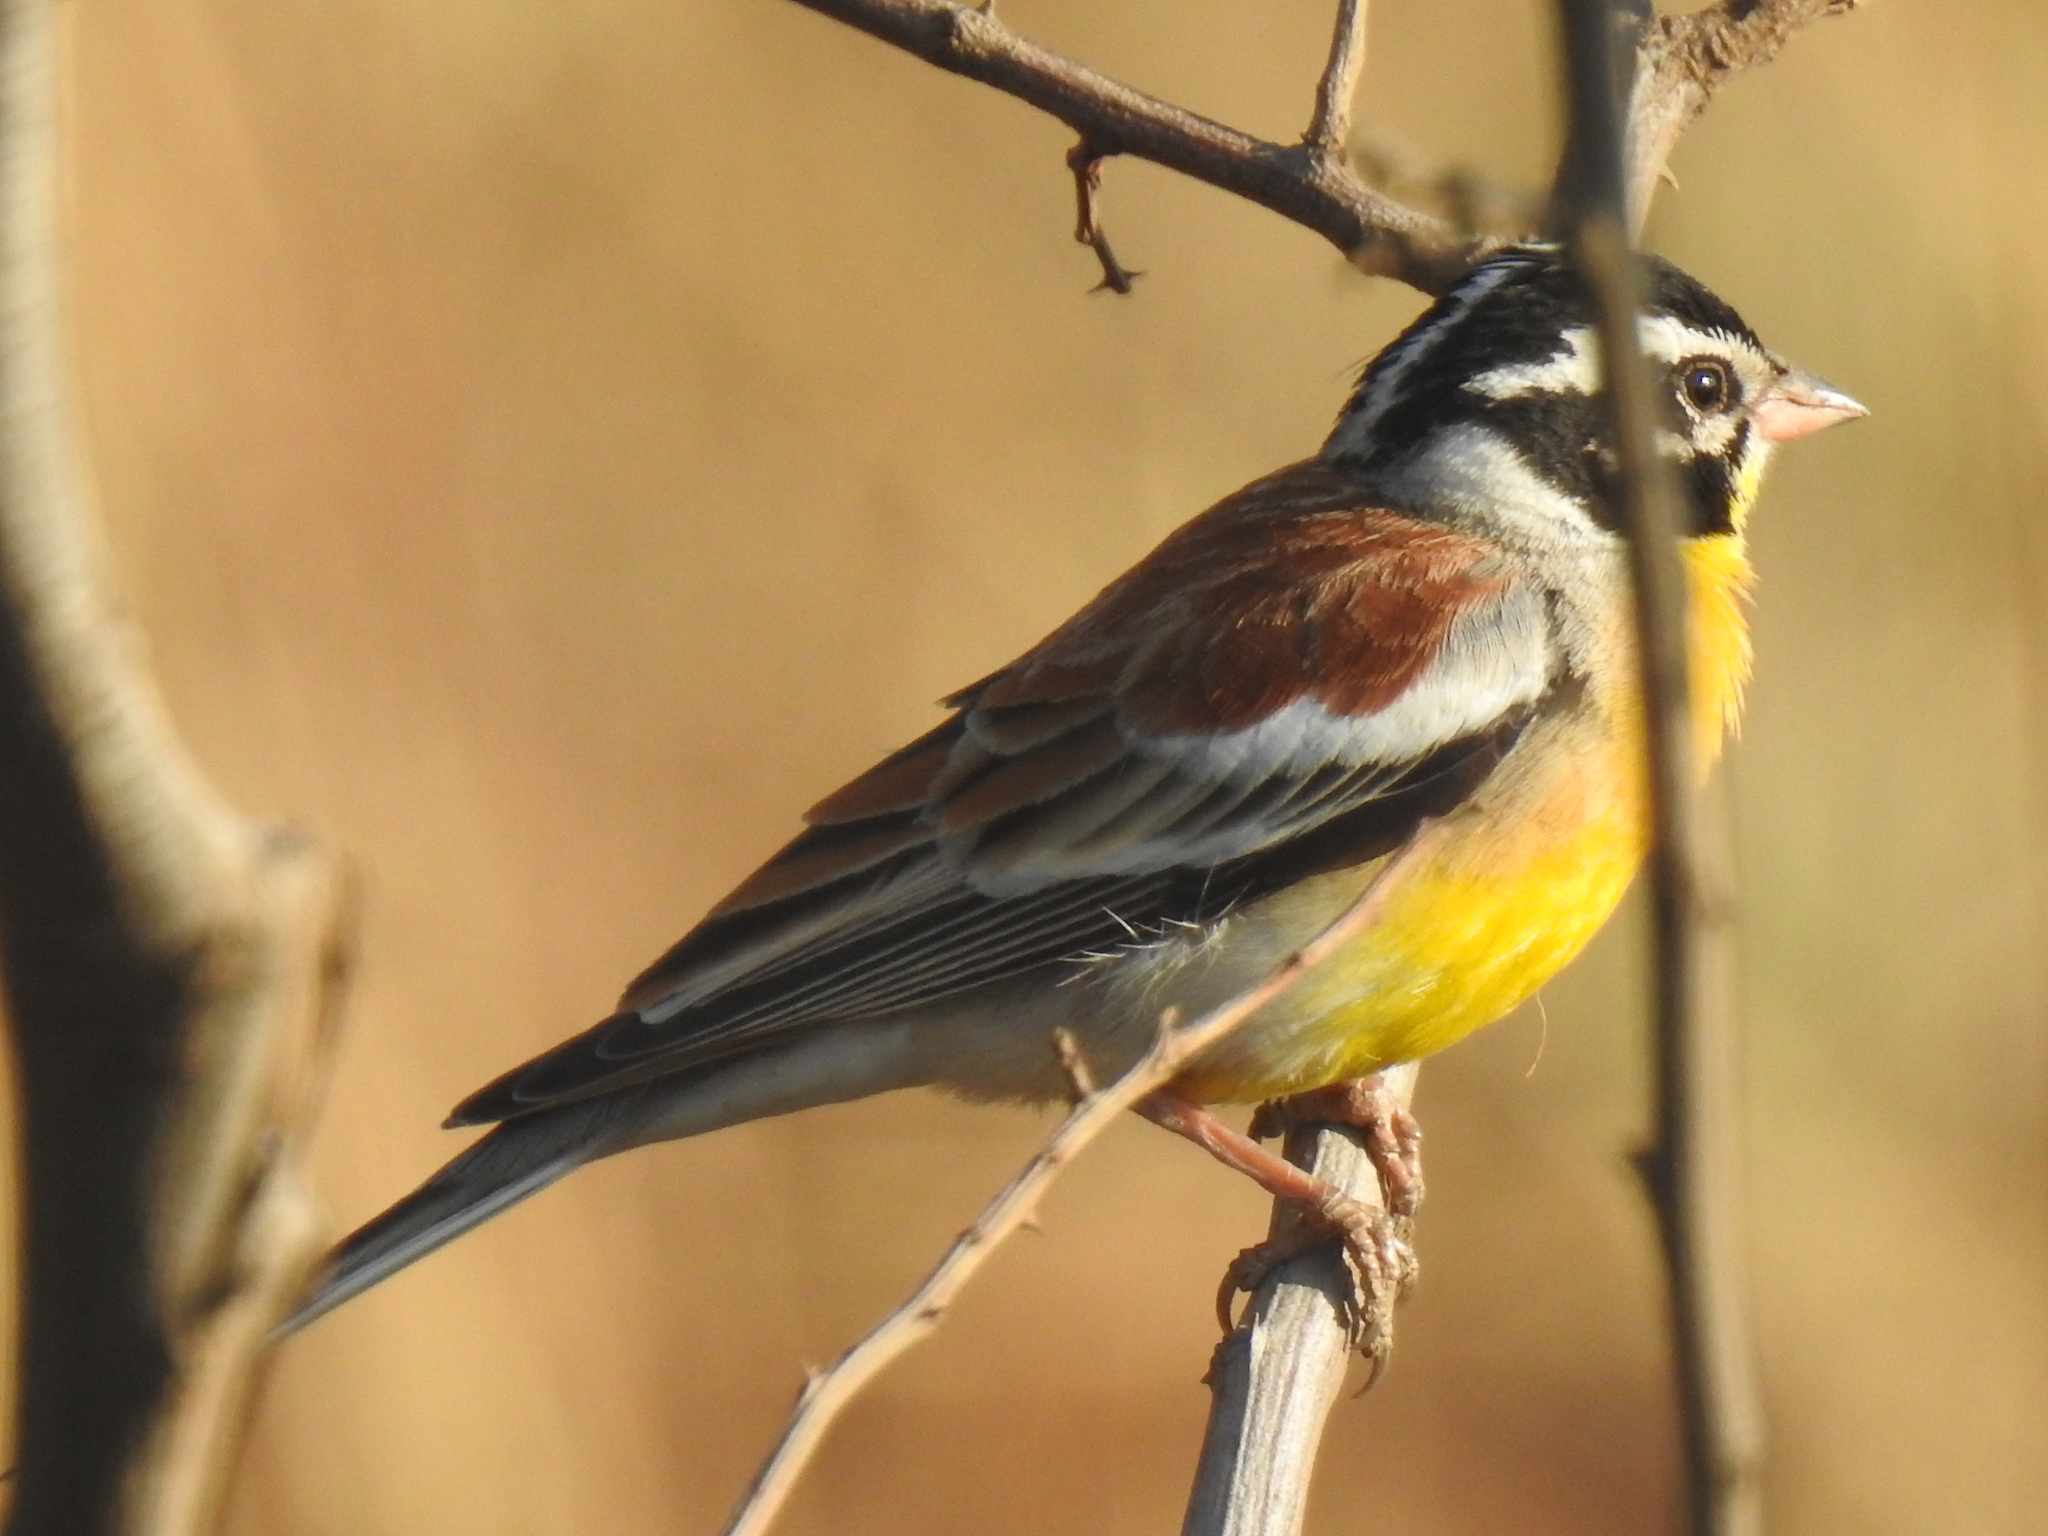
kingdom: Animalia
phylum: Chordata
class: Aves
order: Passeriformes
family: Emberizidae
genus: Emberiza
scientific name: Emberiza flaviventris
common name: Golden-breasted bunting
